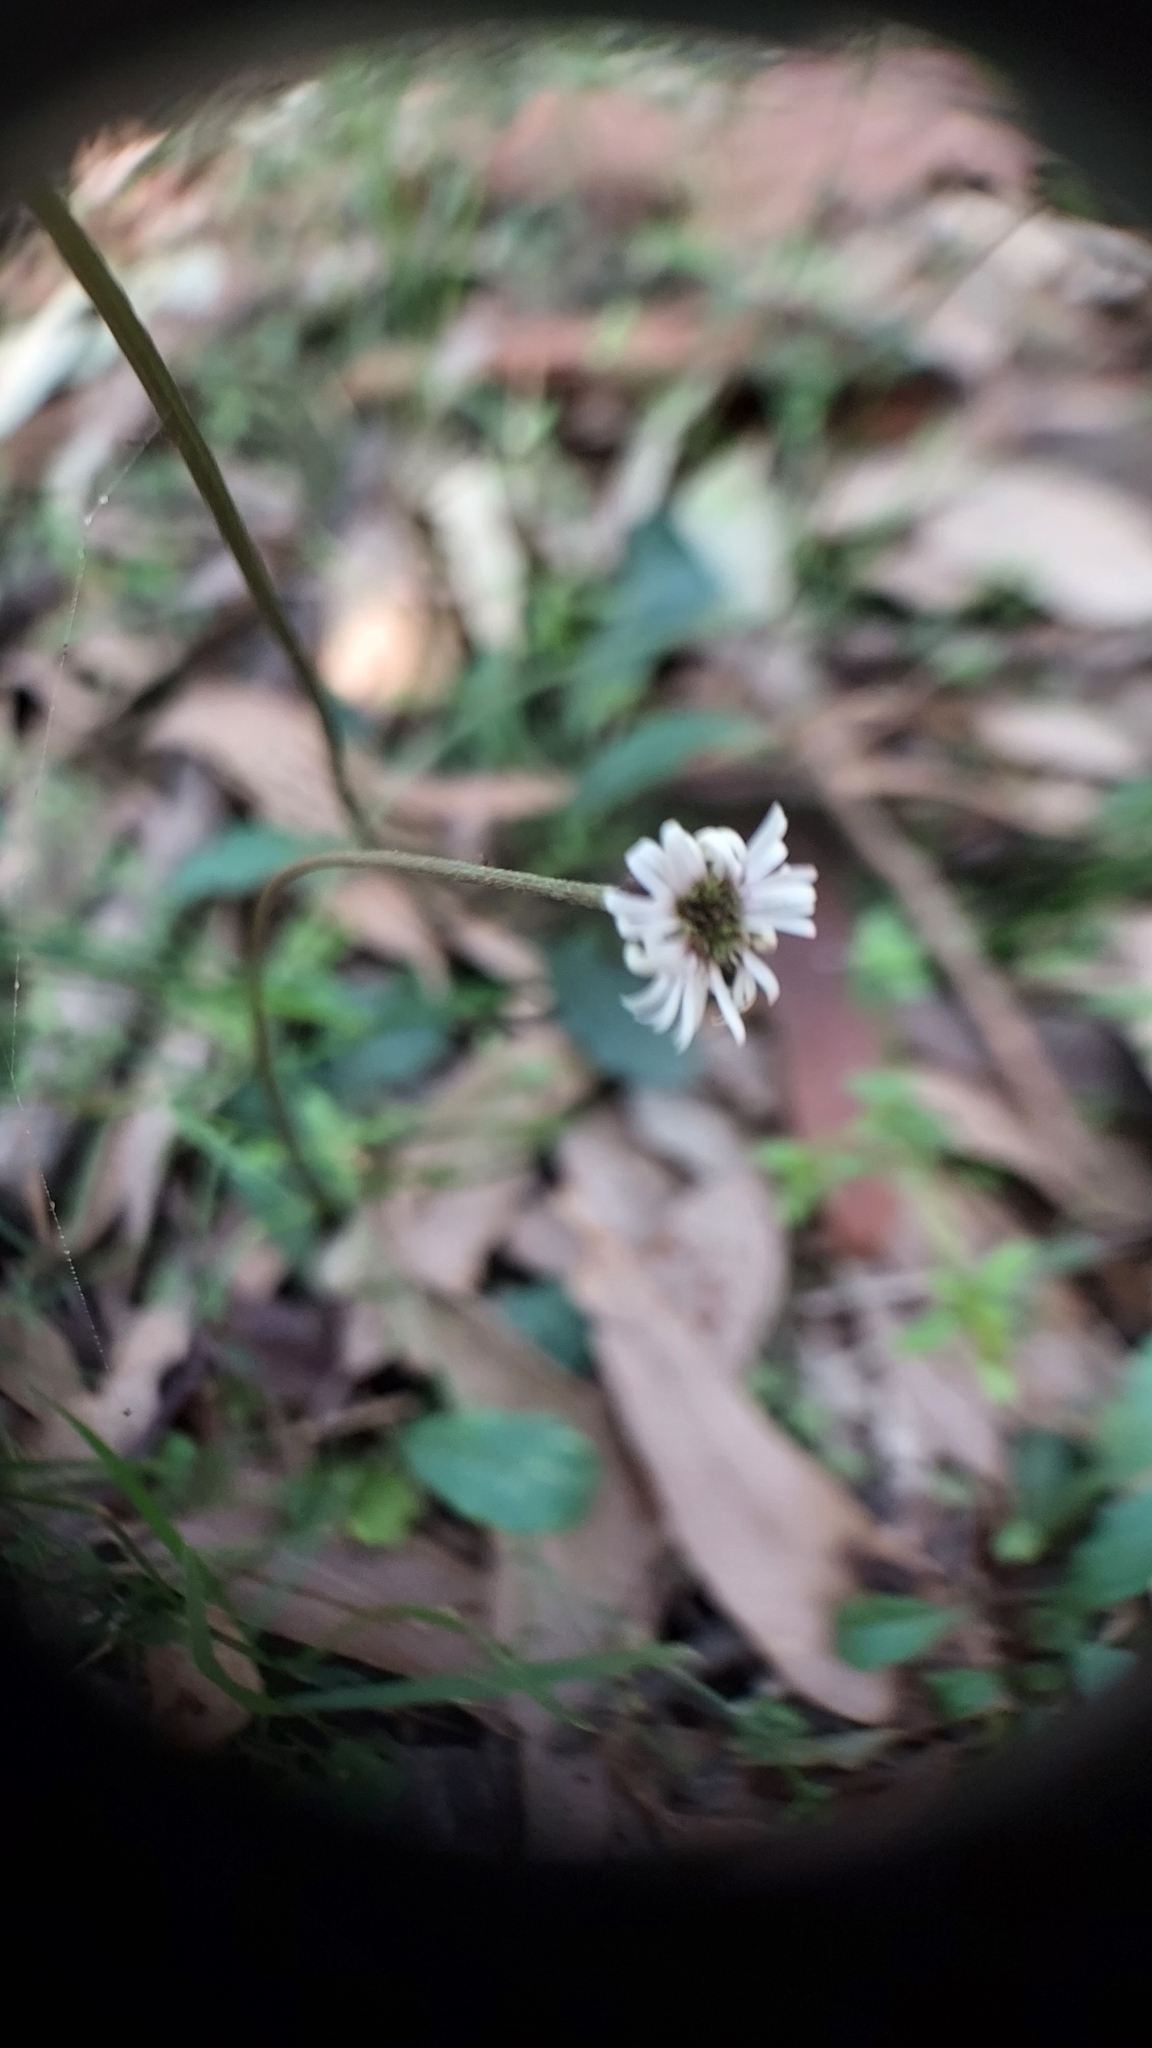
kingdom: Plantae
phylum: Tracheophyta
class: Magnoliopsida
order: Asterales
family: Asteraceae
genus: Lagenophora
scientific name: Lagenophora sublyrata ter
